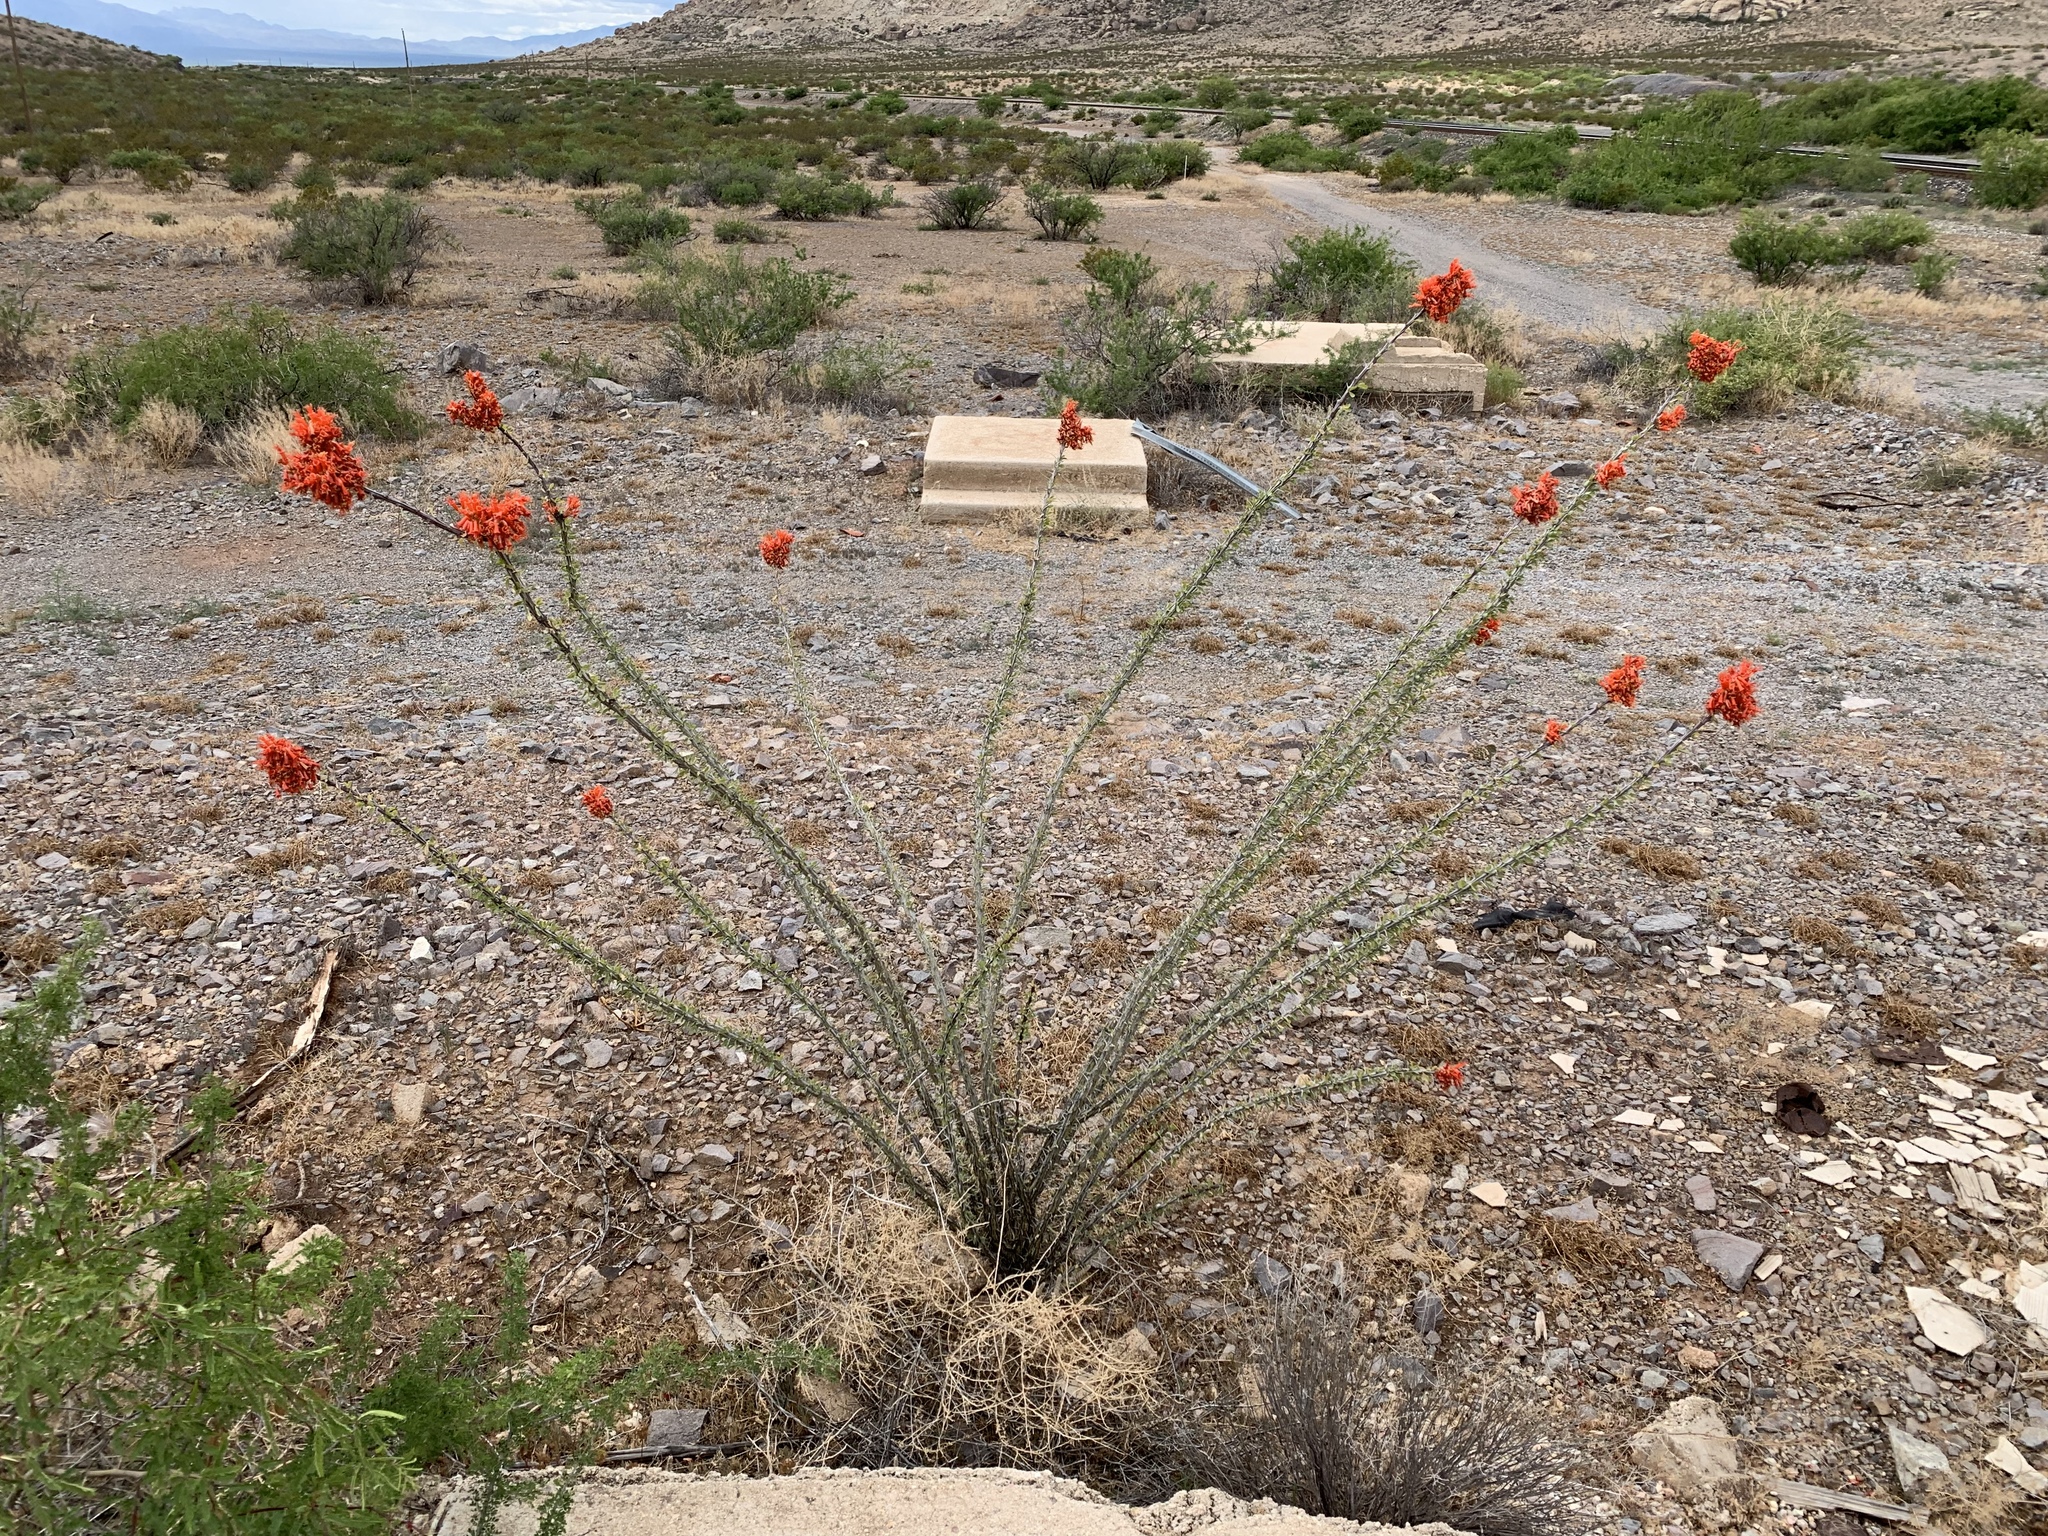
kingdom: Plantae
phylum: Tracheophyta
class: Magnoliopsida
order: Ericales
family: Fouquieriaceae
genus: Fouquieria
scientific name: Fouquieria splendens
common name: Vine-cactus
